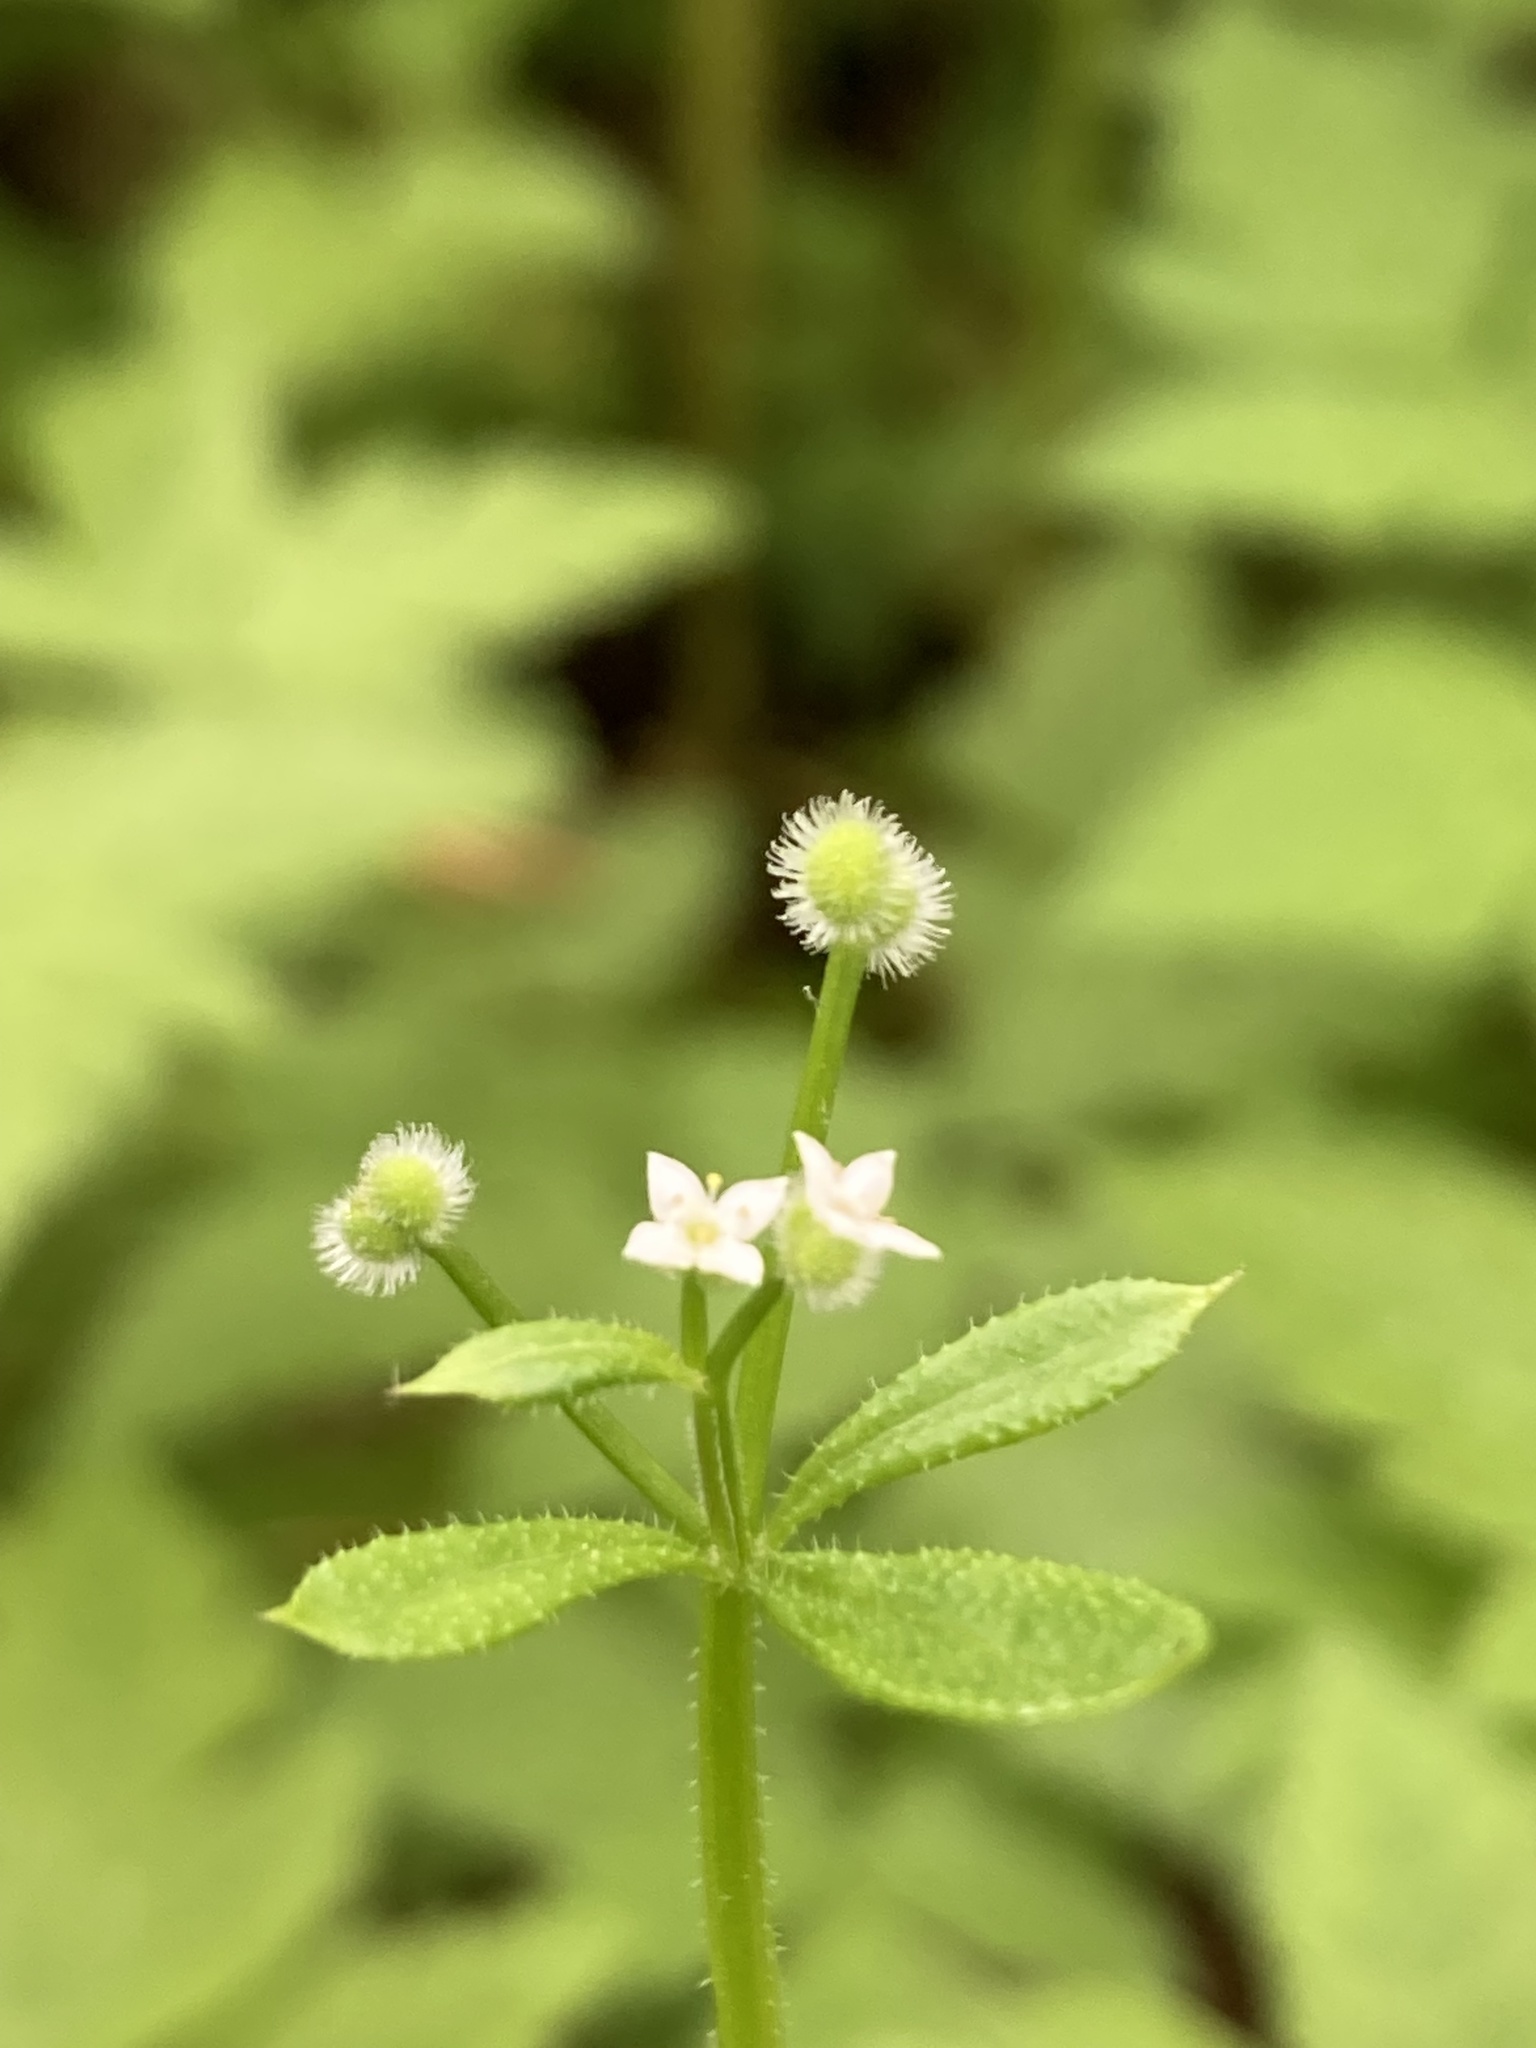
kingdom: Plantae
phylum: Tracheophyta
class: Magnoliopsida
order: Gentianales
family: Rubiaceae
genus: Galium
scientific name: Galium aparine
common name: Cleavers
